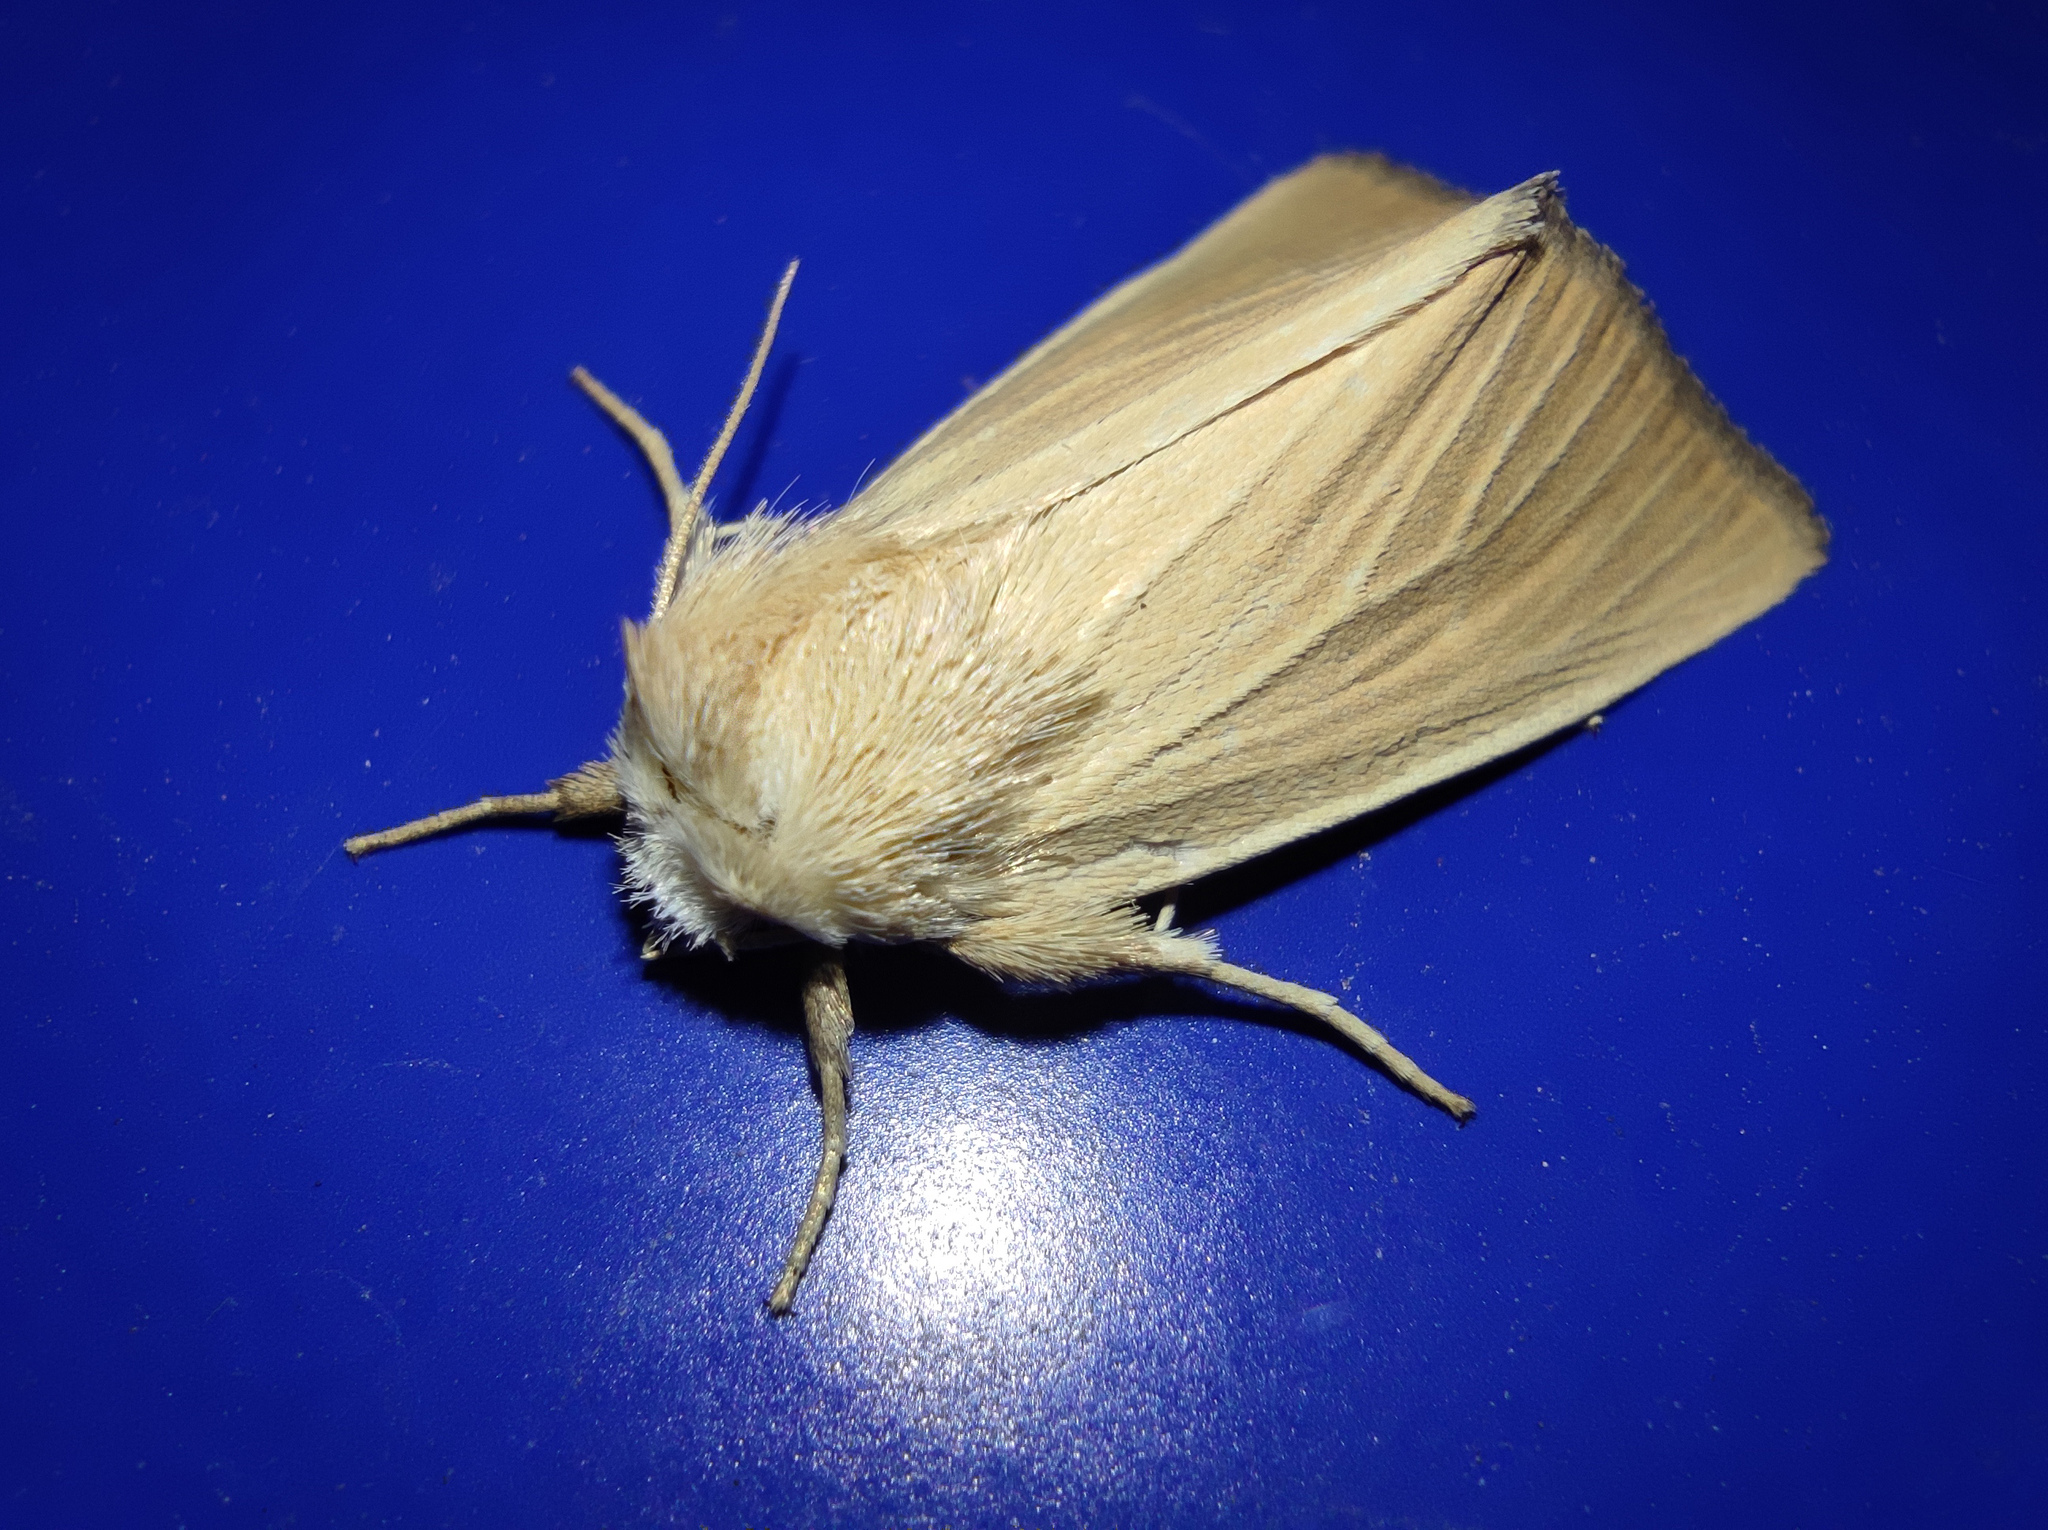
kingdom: Animalia
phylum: Arthropoda
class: Insecta
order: Lepidoptera
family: Noctuidae
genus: Arenostola
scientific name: Arenostola phragmitidis
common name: Fen wainscot
